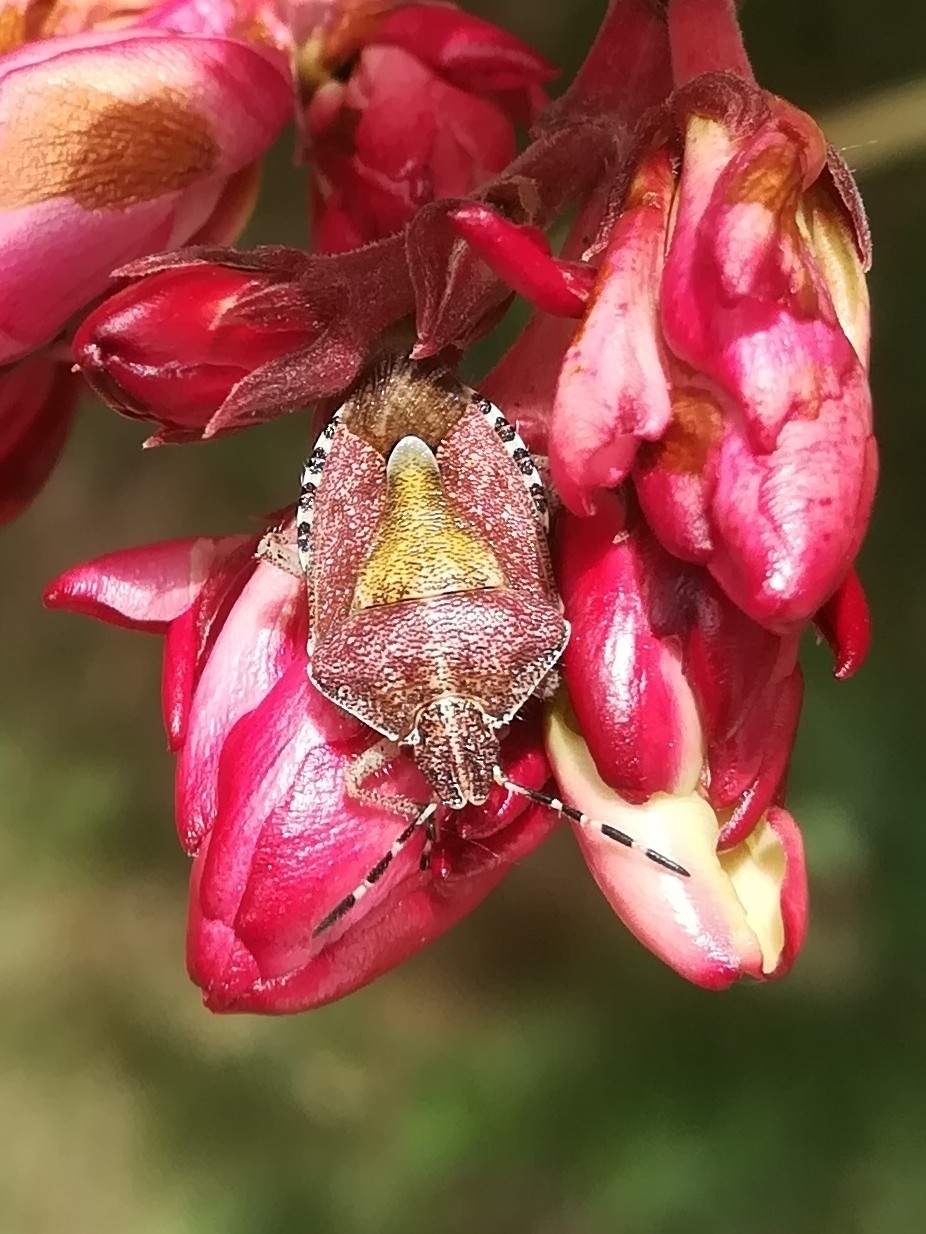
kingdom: Animalia
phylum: Arthropoda
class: Insecta
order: Hemiptera
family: Pentatomidae
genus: Dolycoris
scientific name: Dolycoris baccarum
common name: Sloe bug
